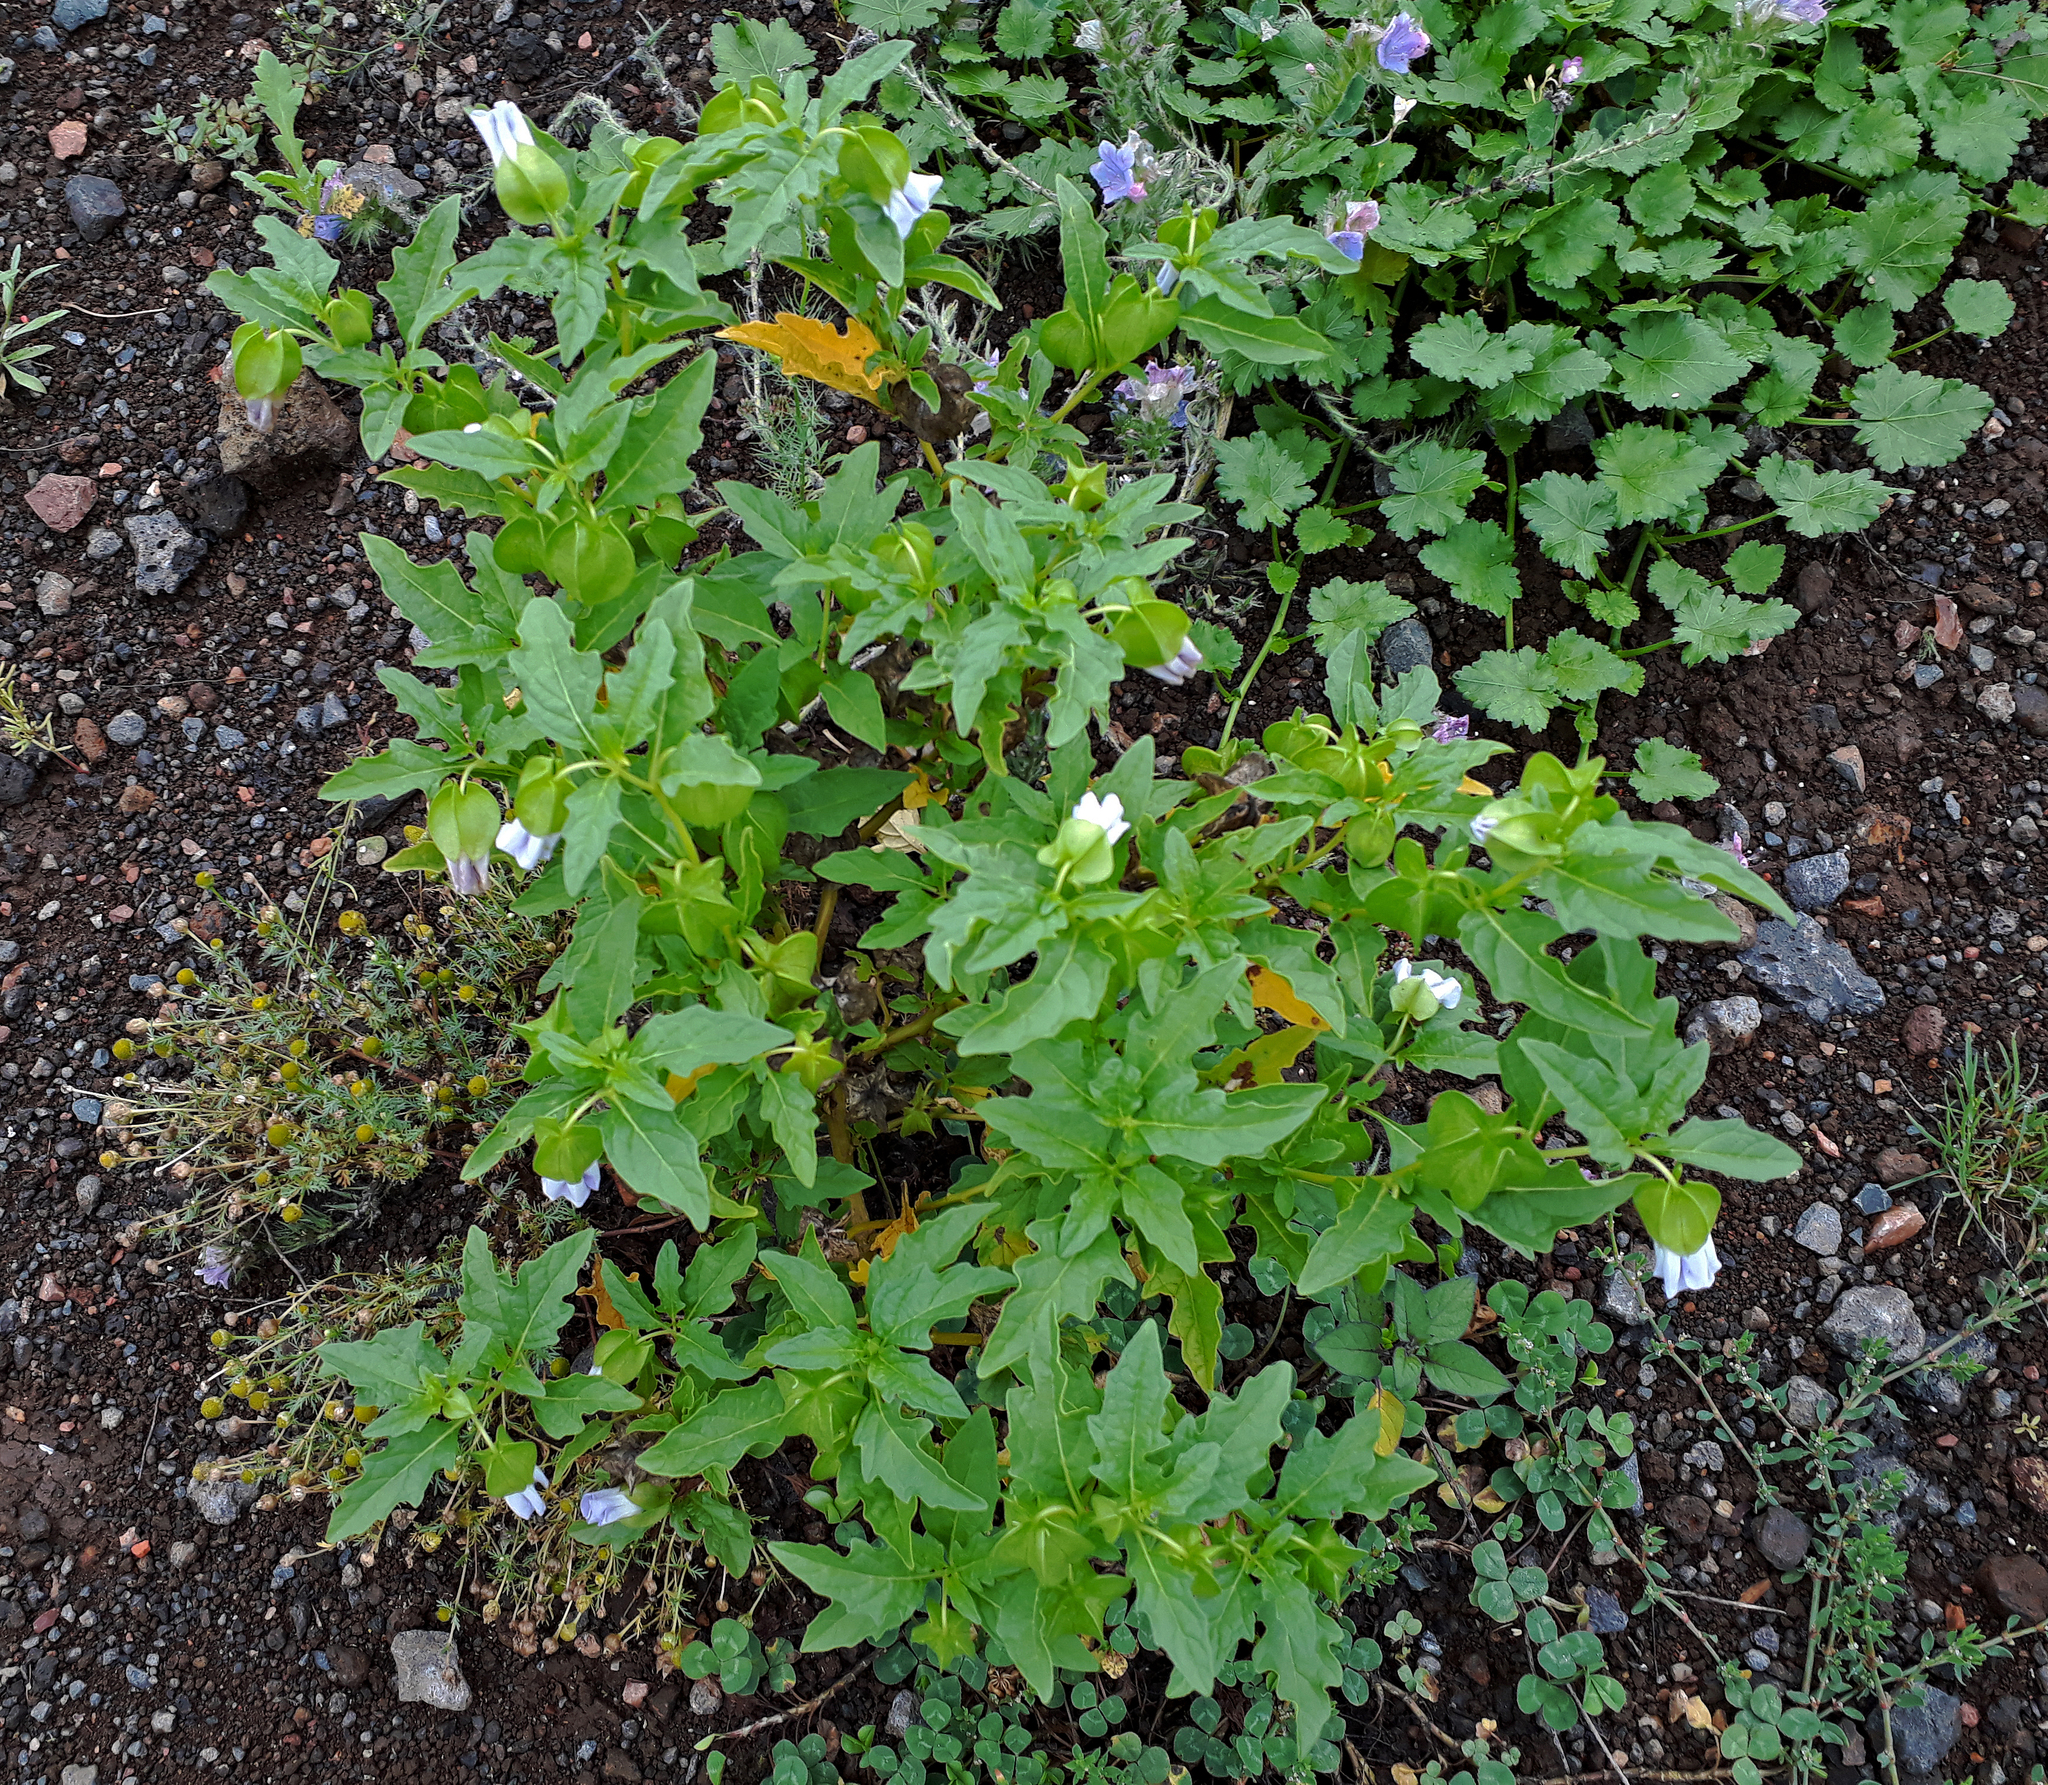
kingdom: Plantae
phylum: Tracheophyta
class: Magnoliopsida
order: Solanales
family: Solanaceae
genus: Nicandra
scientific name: Nicandra physalodes
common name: Apple-of-peru
